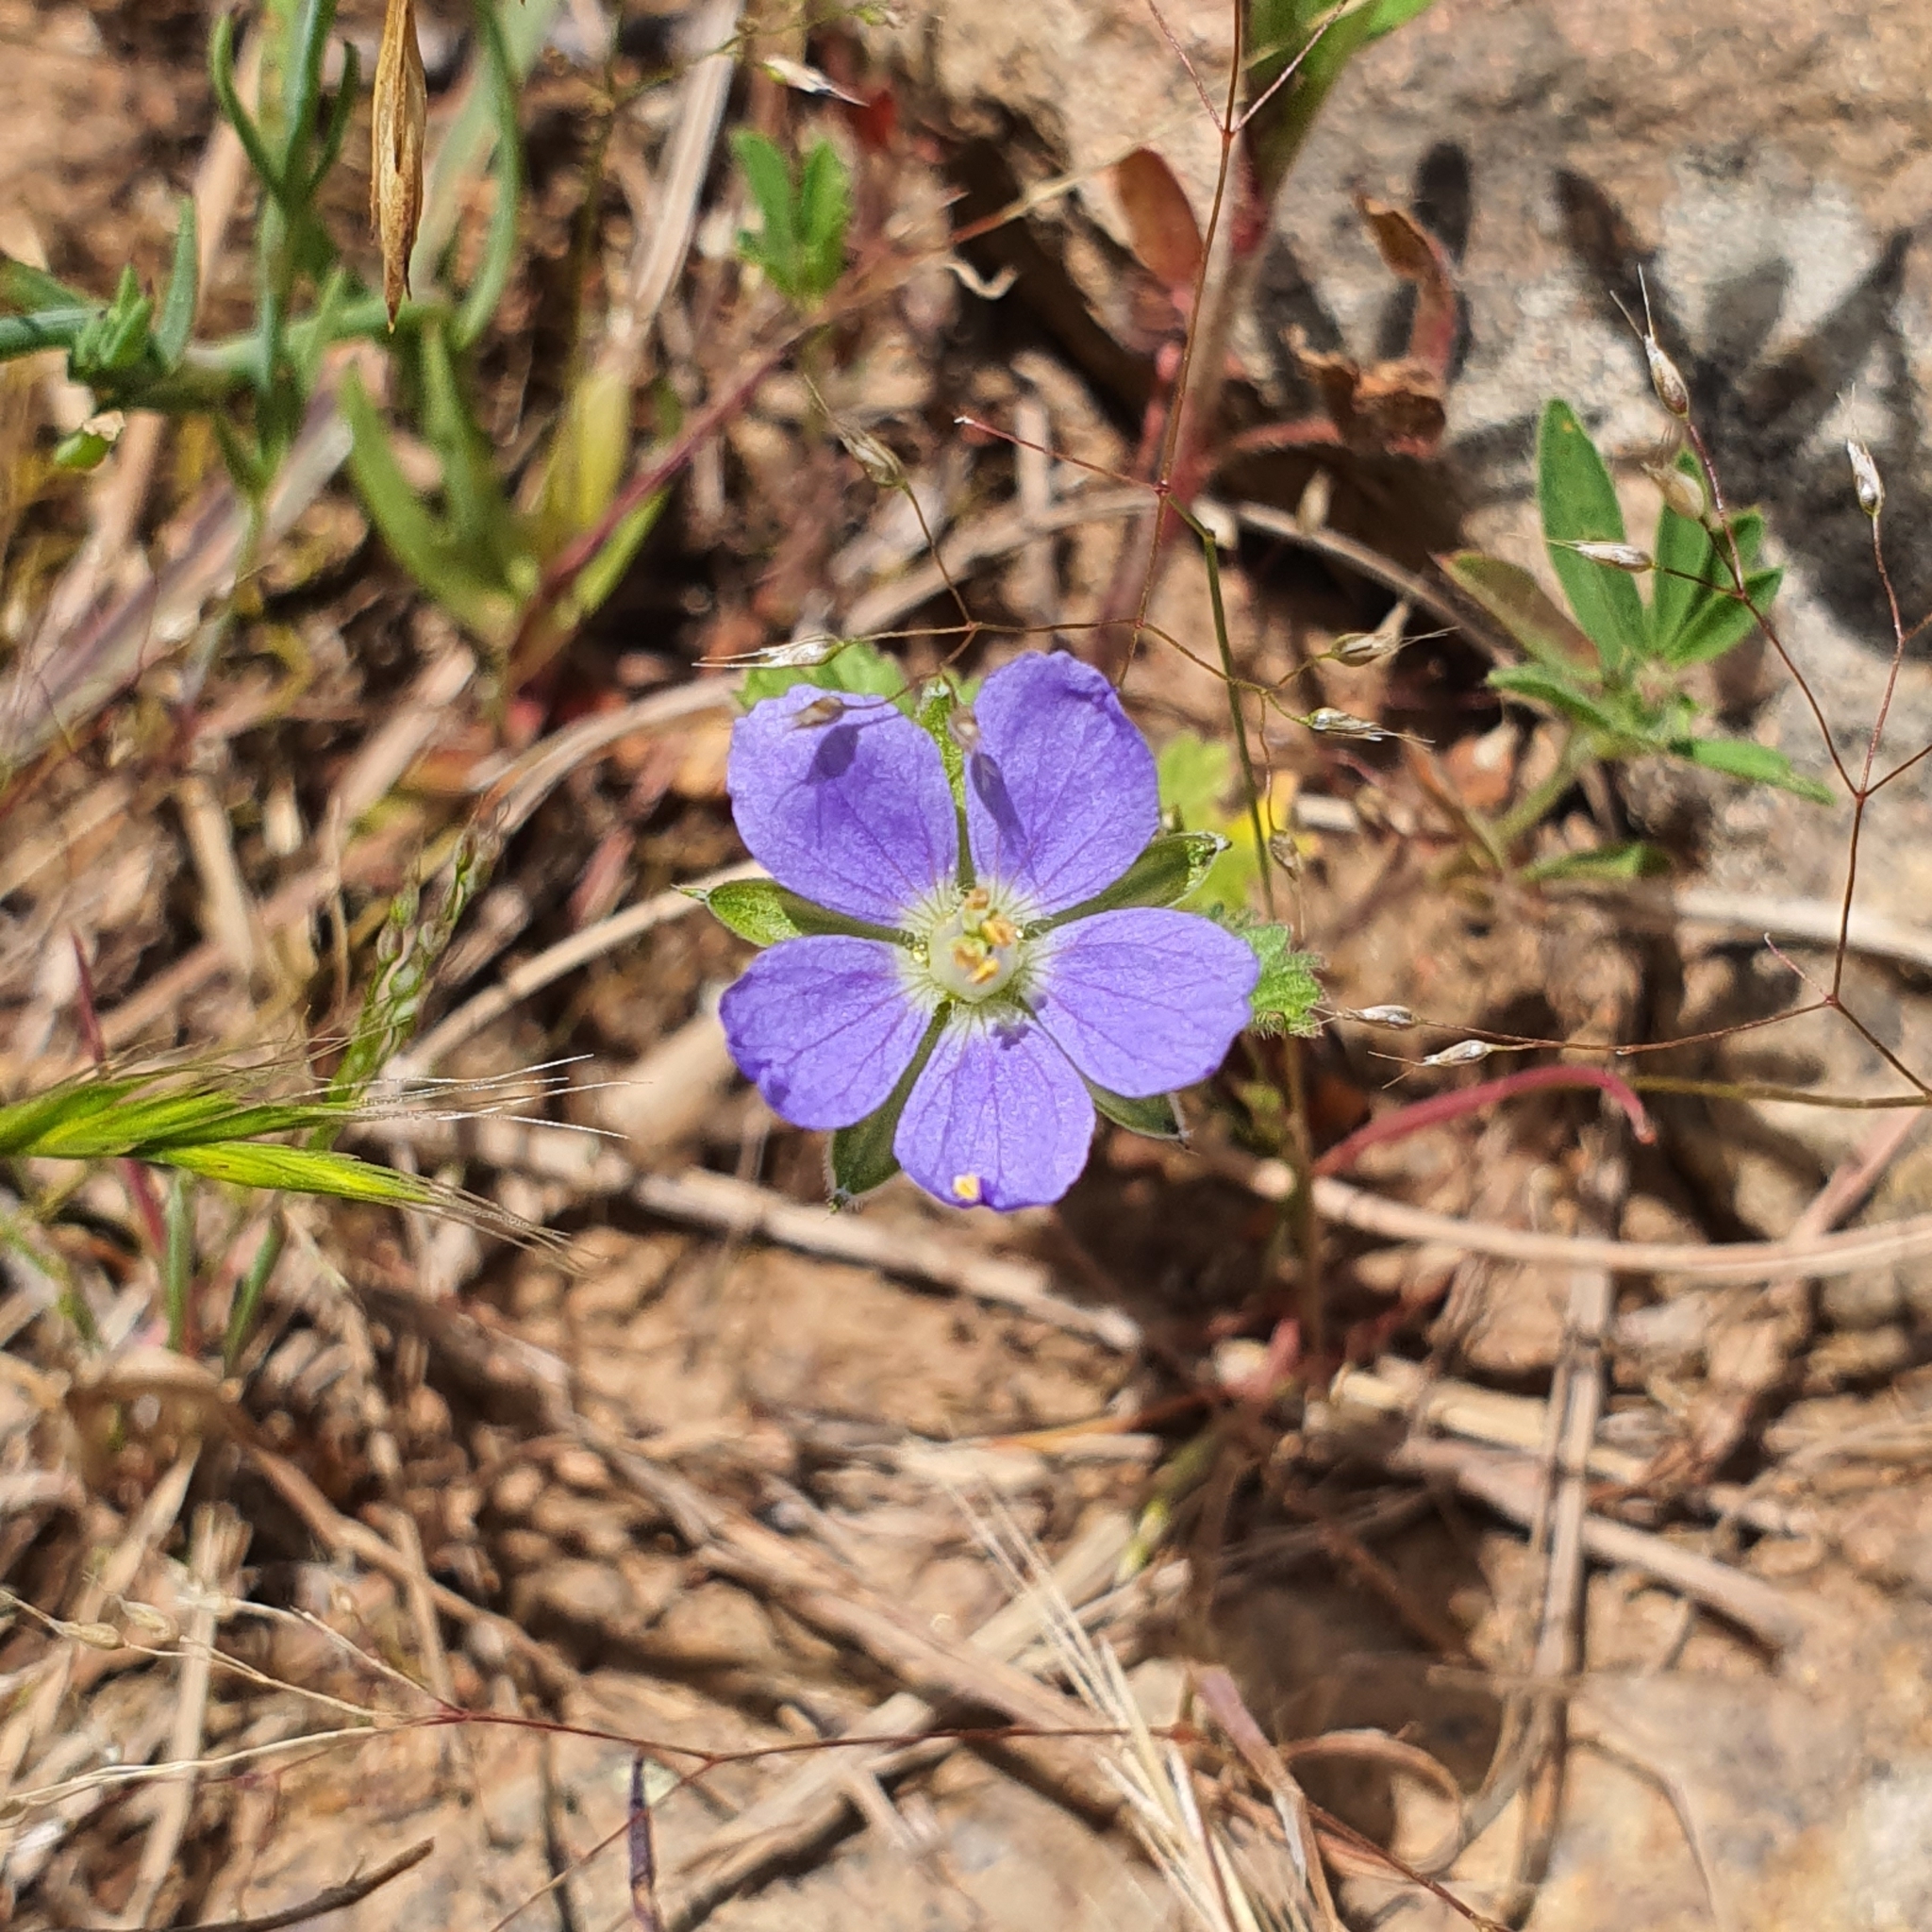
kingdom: Plantae
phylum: Tracheophyta
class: Magnoliopsida
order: Geraniales
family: Geraniaceae
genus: Erodium
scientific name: Erodium crinitum
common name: Eastern stork's-bill
